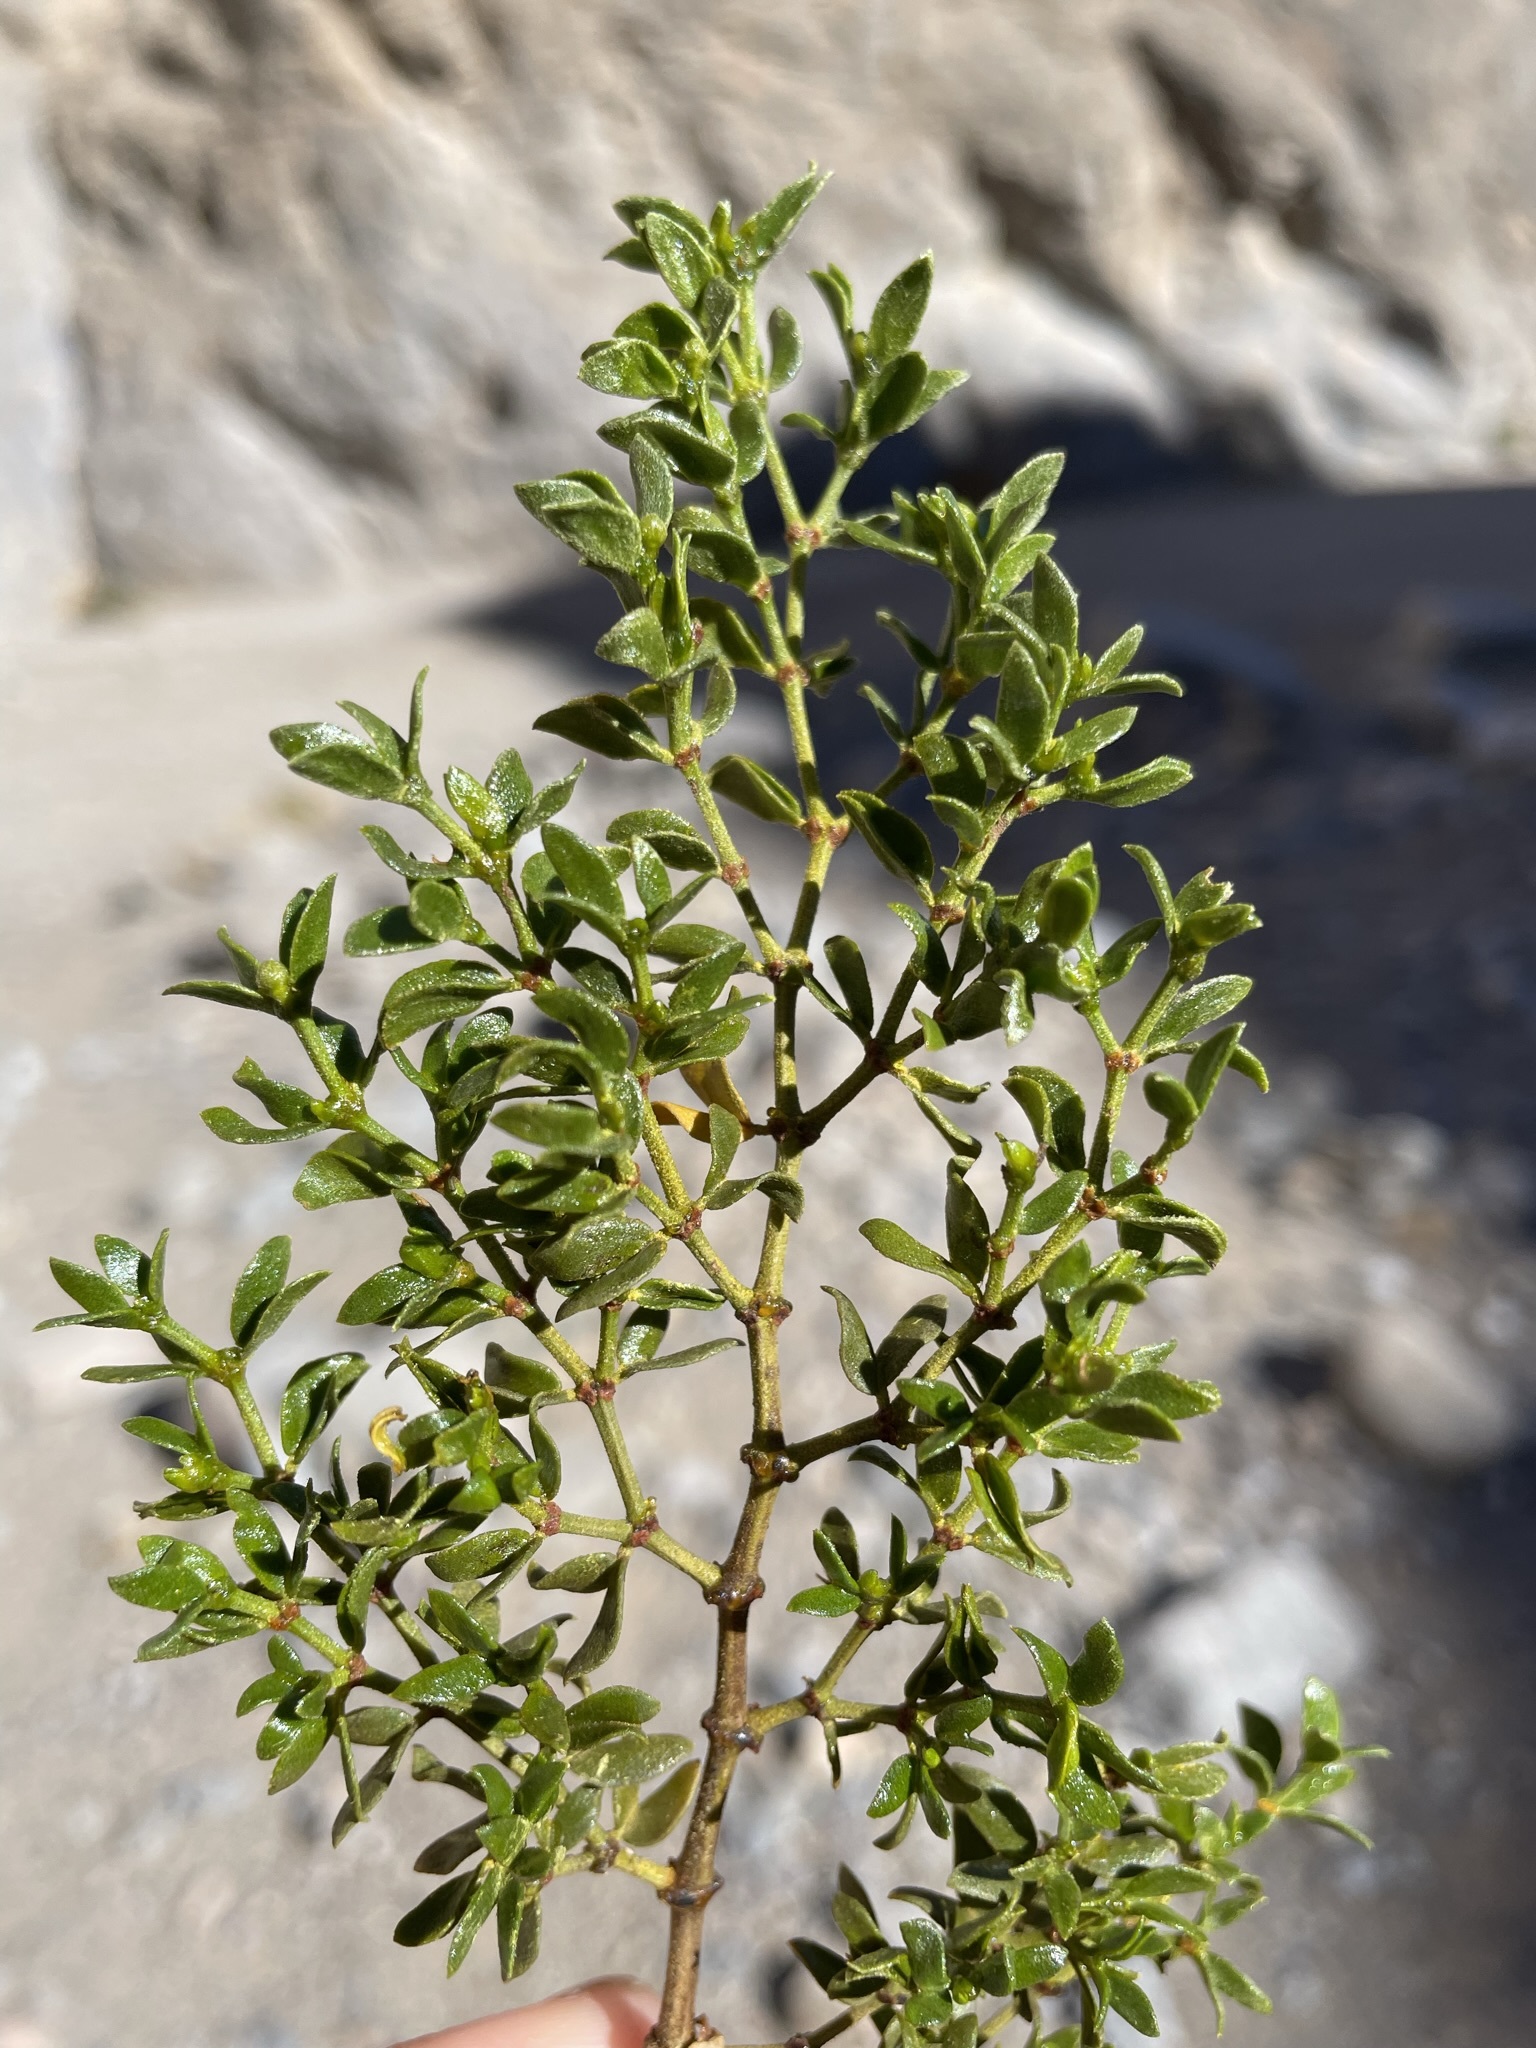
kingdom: Plantae
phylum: Tracheophyta
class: Magnoliopsida
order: Zygophyllales
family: Zygophyllaceae
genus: Larrea
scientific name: Larrea tridentata
